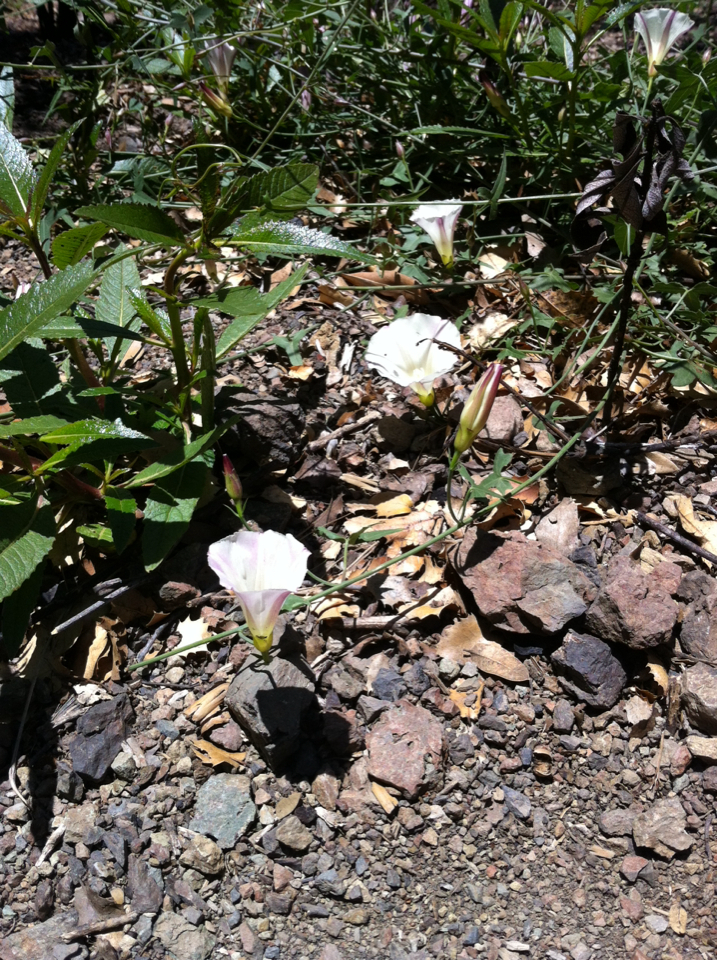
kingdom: Plantae
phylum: Tracheophyta
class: Magnoliopsida
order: Solanales
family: Convolvulaceae
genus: Calystegia
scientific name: Calystegia purpurata
